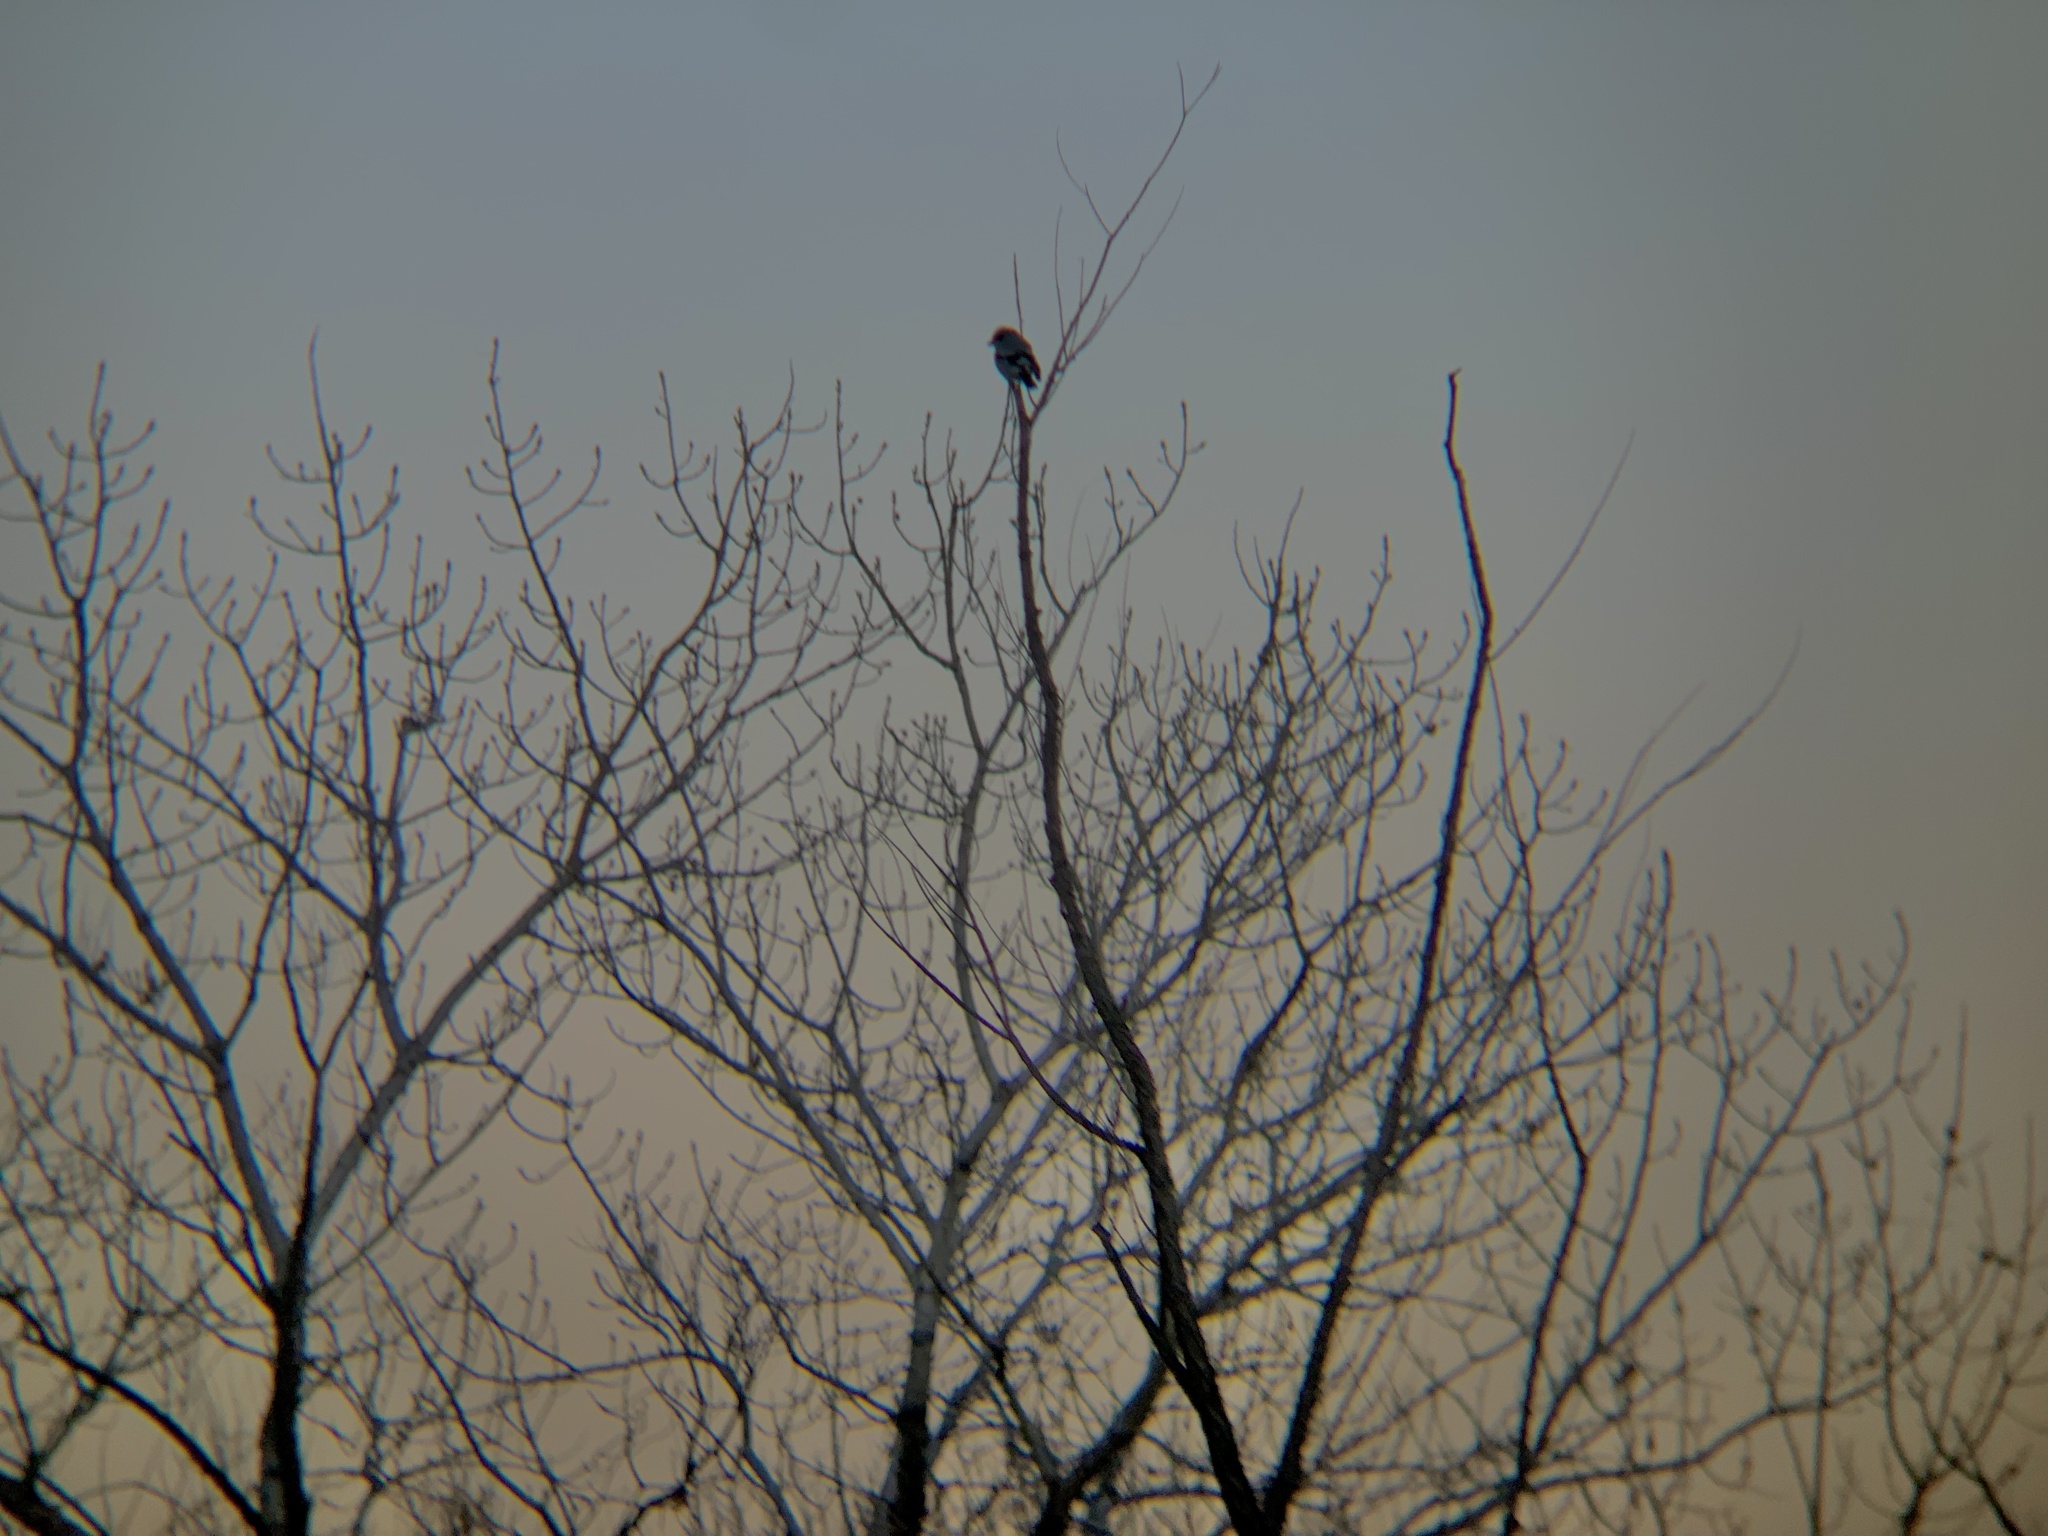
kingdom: Animalia
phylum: Chordata
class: Aves
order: Passeriformes
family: Laniidae
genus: Lanius
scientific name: Lanius ludovicianus
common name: Loggerhead shrike
